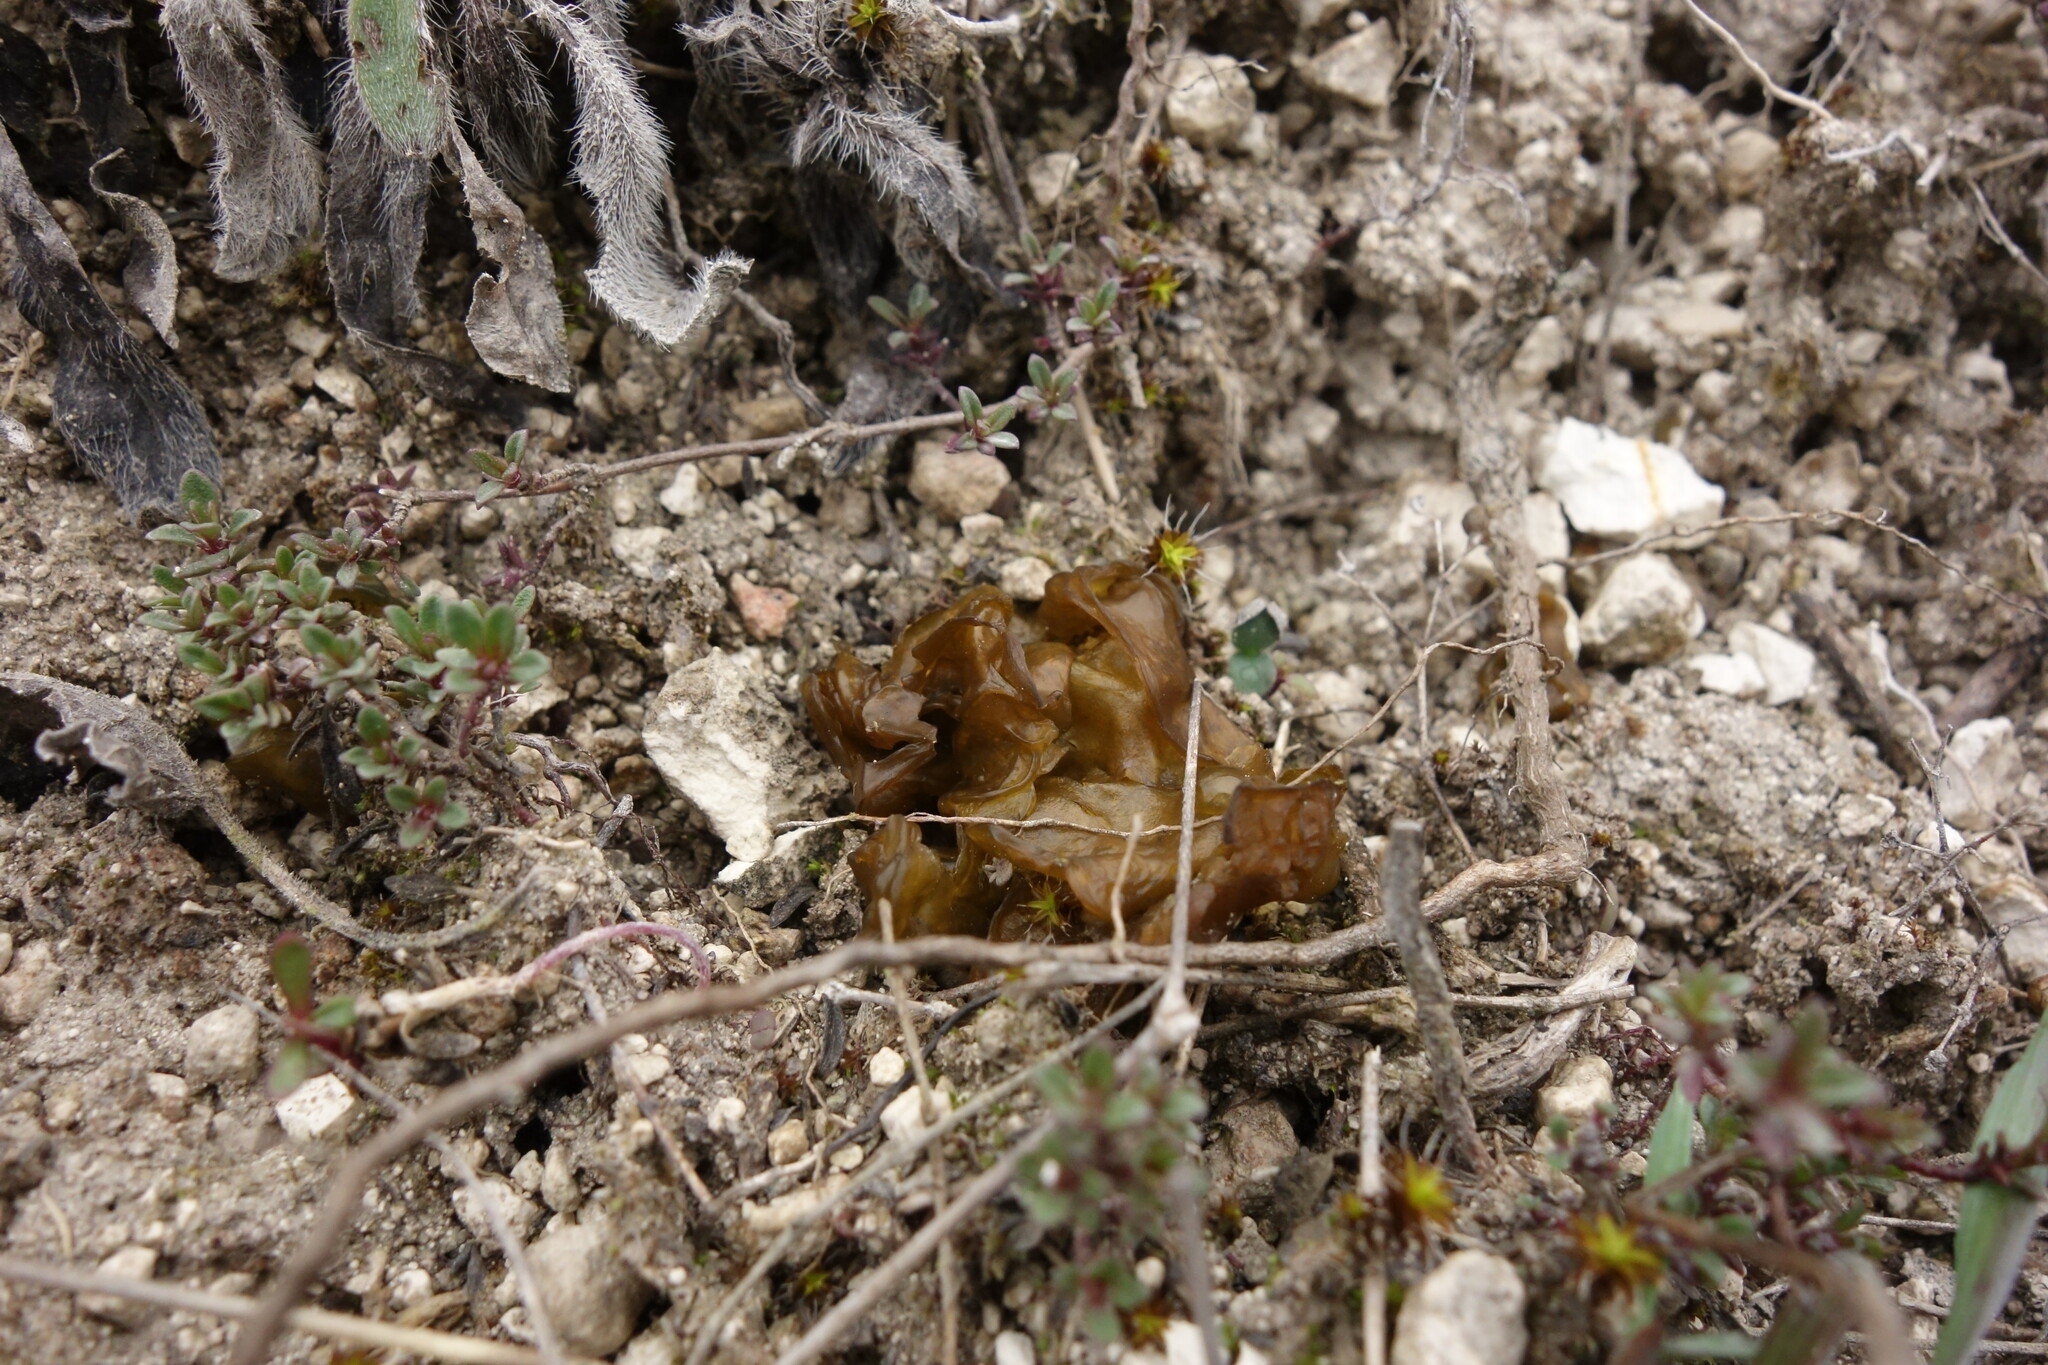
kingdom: Bacteria
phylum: Cyanobacteria
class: Cyanobacteriia
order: Cyanobacteriales
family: Nostocaceae
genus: Nostoc
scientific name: Nostoc commune
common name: Star jelly
